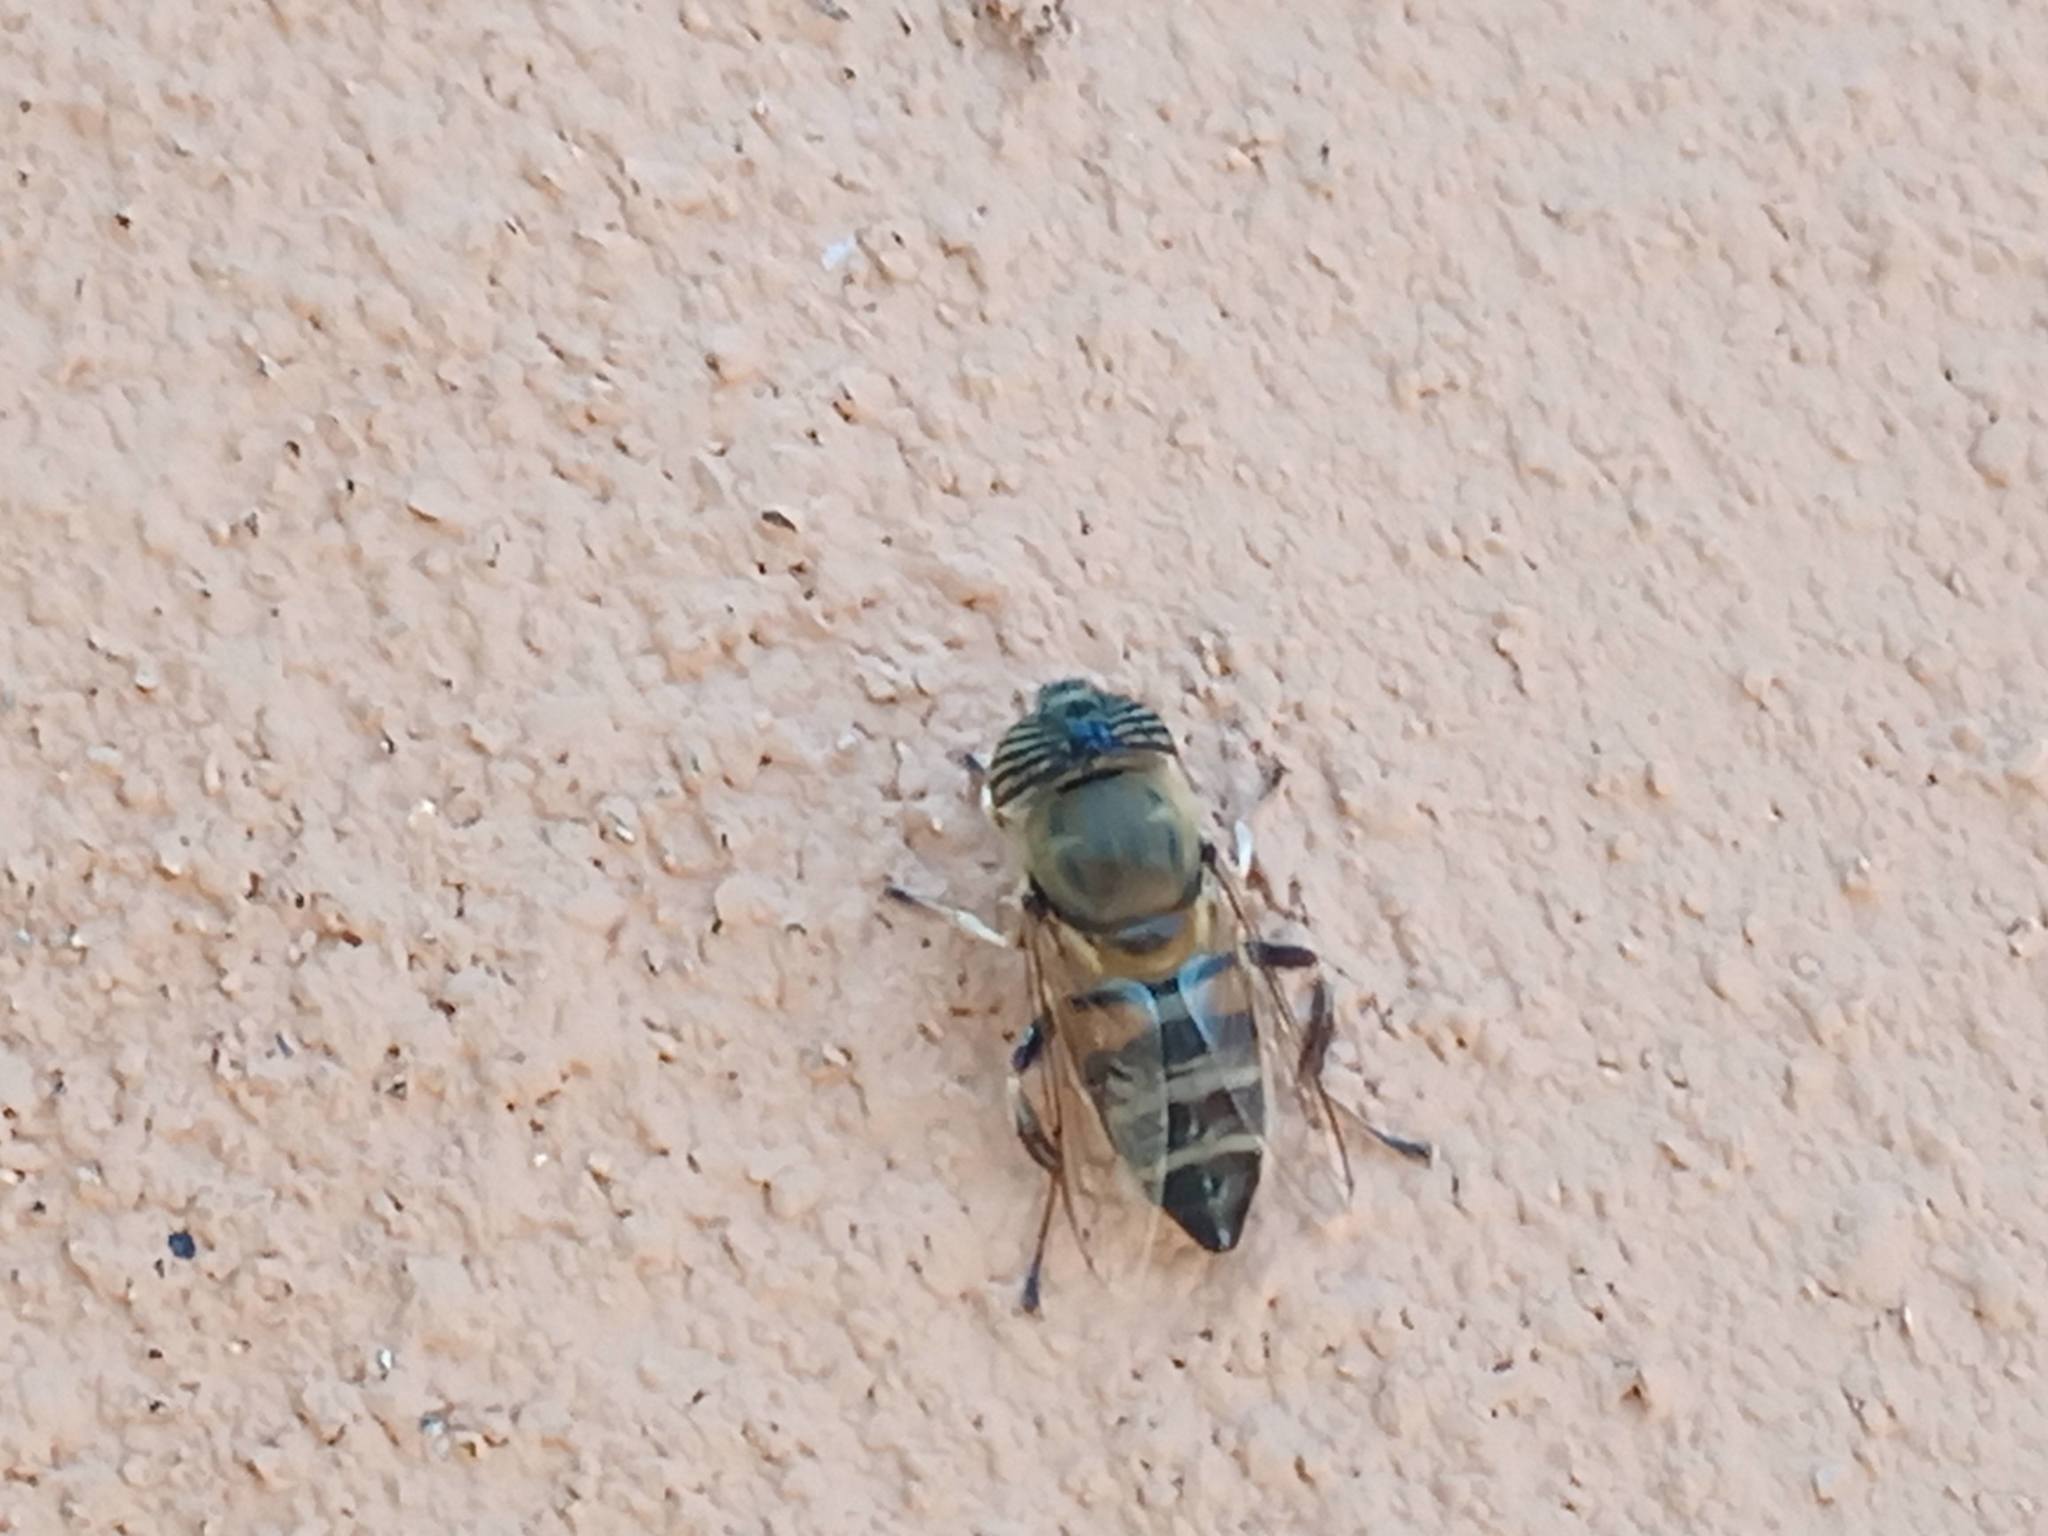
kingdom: Animalia
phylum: Arthropoda
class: Insecta
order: Diptera
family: Syrphidae
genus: Eristalinus
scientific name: Eristalinus taeniops
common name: Syrphid fly
